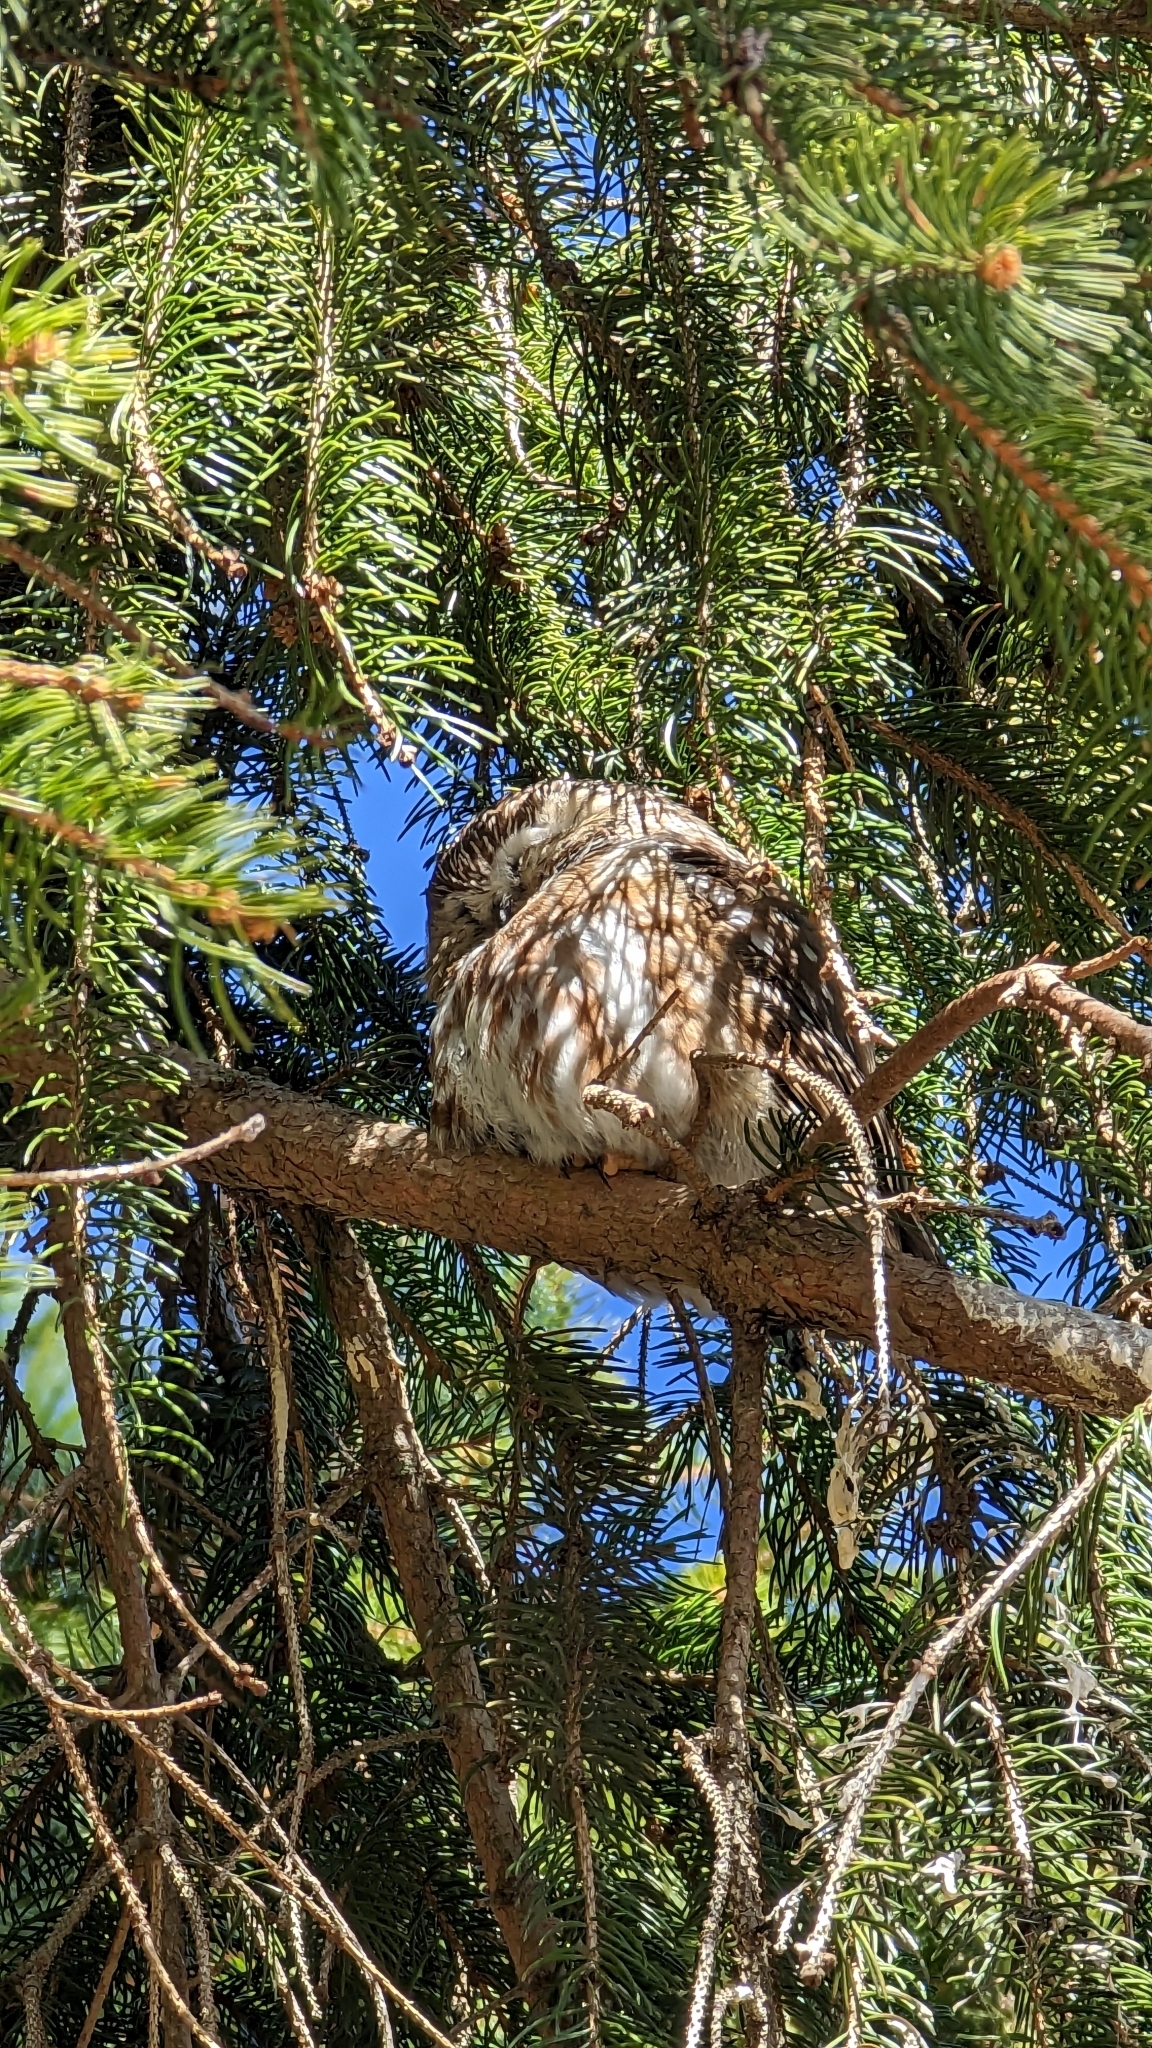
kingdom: Animalia
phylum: Chordata
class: Aves
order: Strigiformes
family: Strigidae
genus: Aegolius
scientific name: Aegolius acadicus
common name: Northern saw-whet owl
